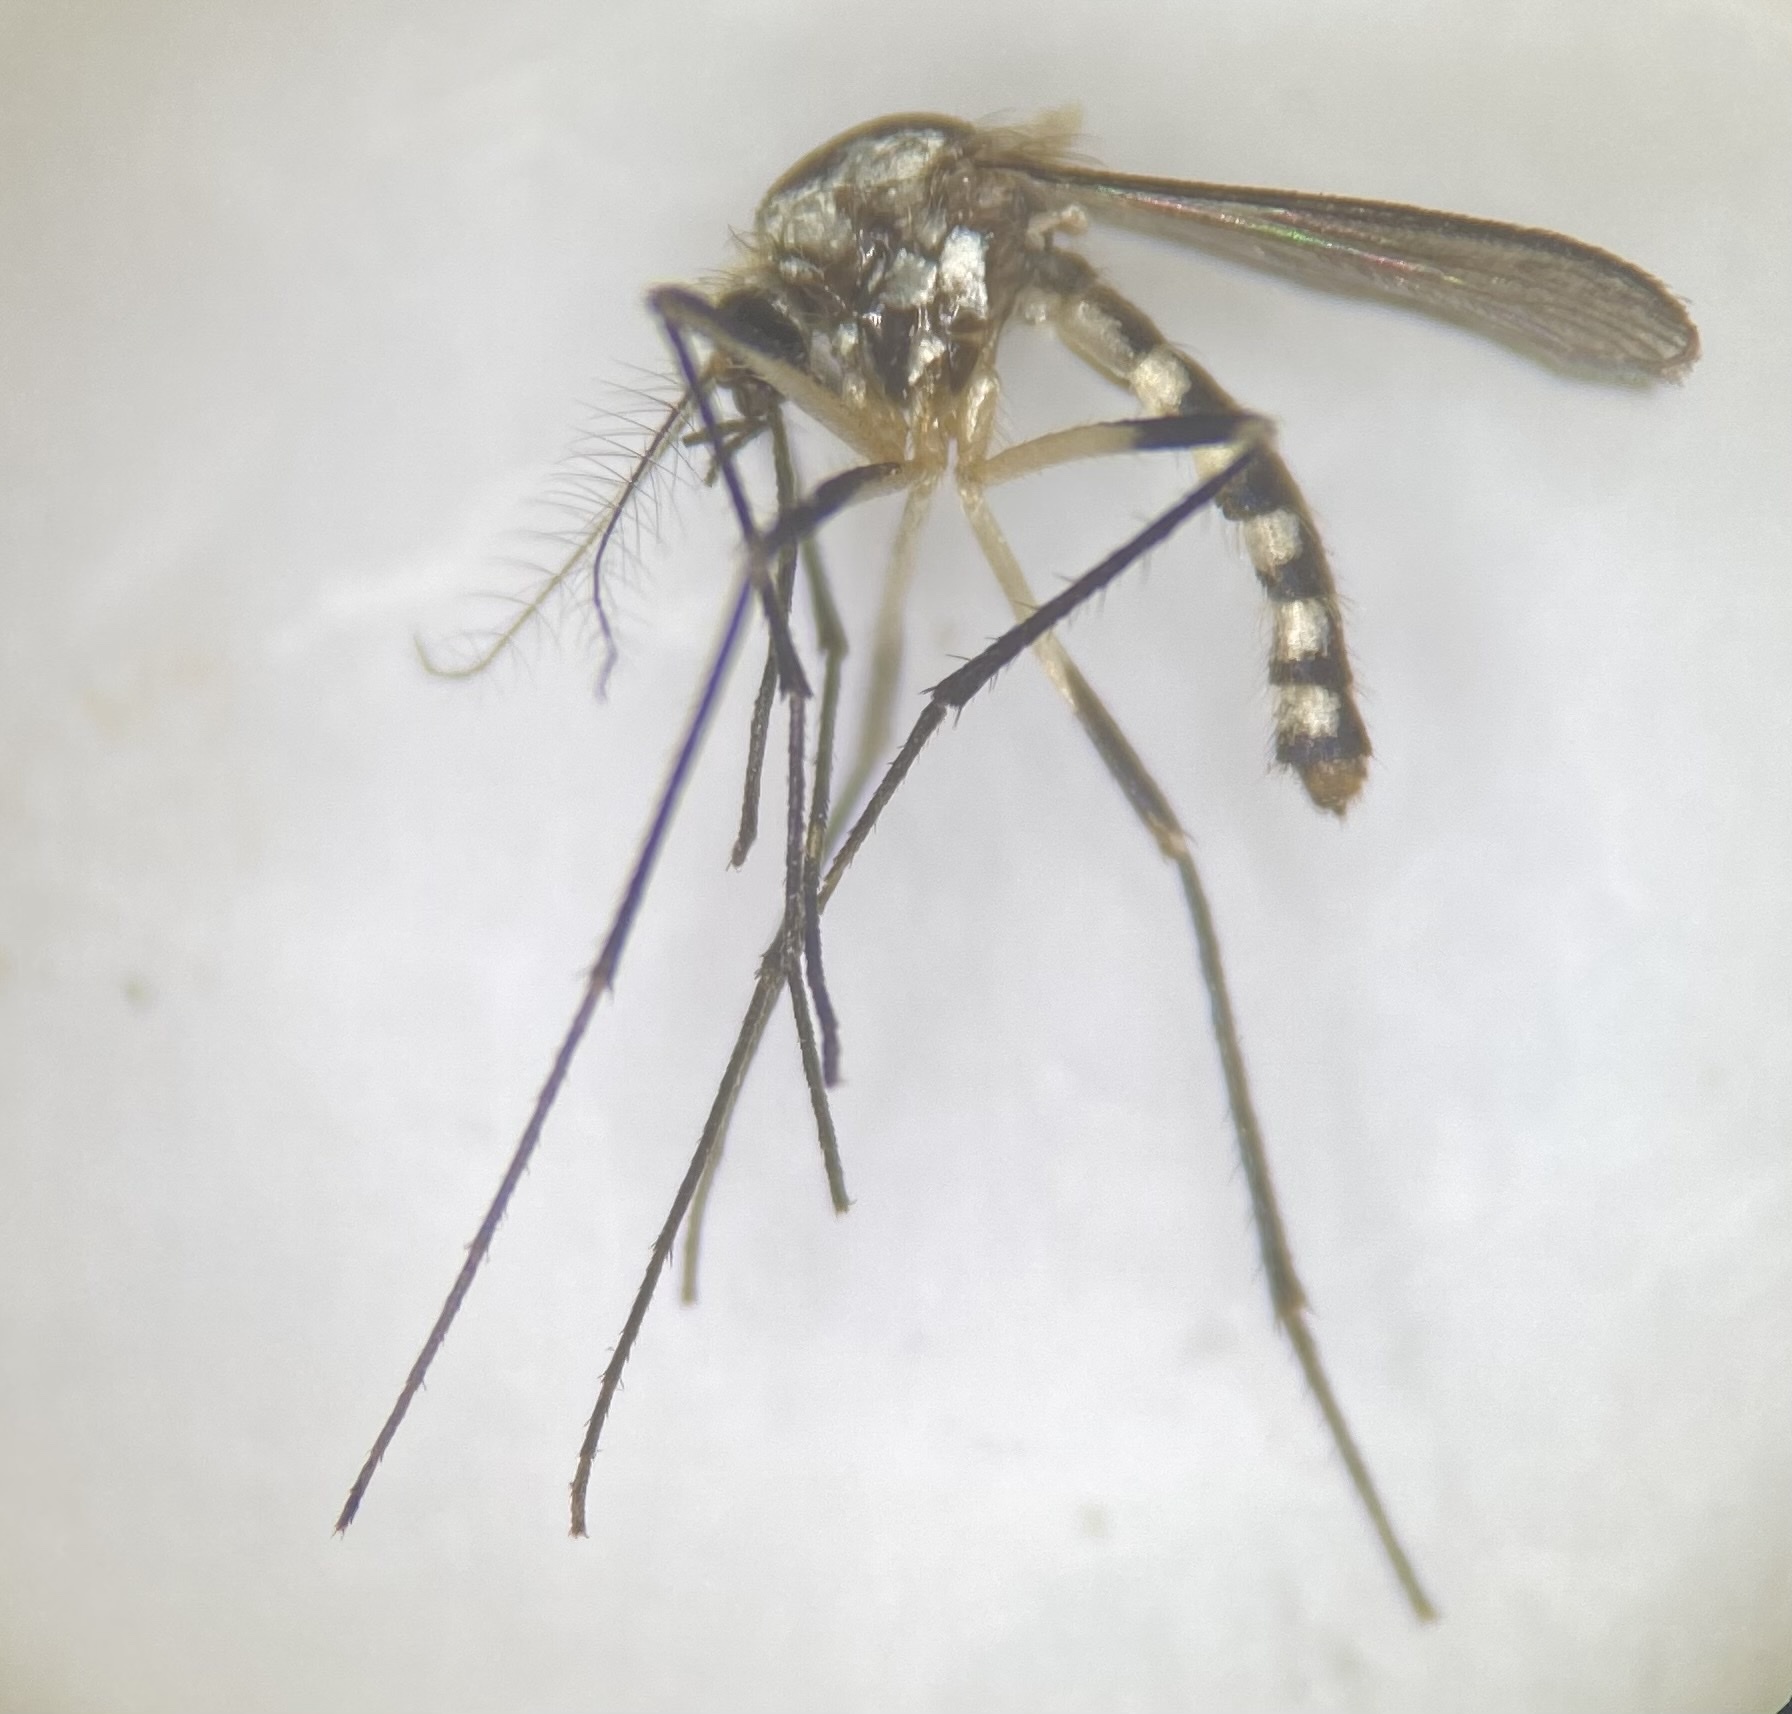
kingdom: Animalia
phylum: Arthropoda
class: Insecta
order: Diptera
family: Culicidae
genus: Aedes
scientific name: Aedes triseriatus
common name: Eastern treehole mosquito
